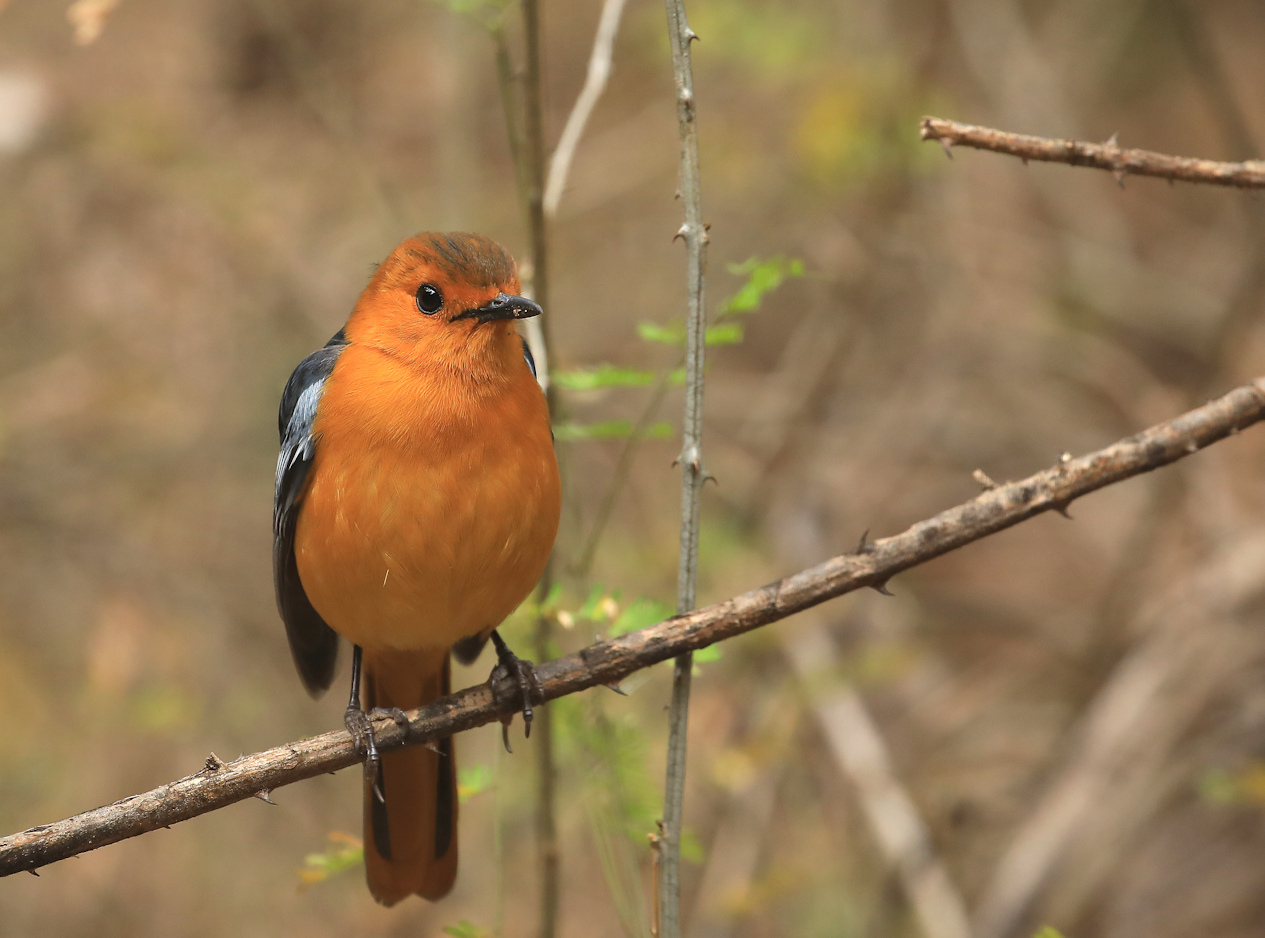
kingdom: Animalia
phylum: Chordata
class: Aves
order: Passeriformes
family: Muscicapidae
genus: Cossypha
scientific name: Cossypha natalensis
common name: Red-capped robin-chat
